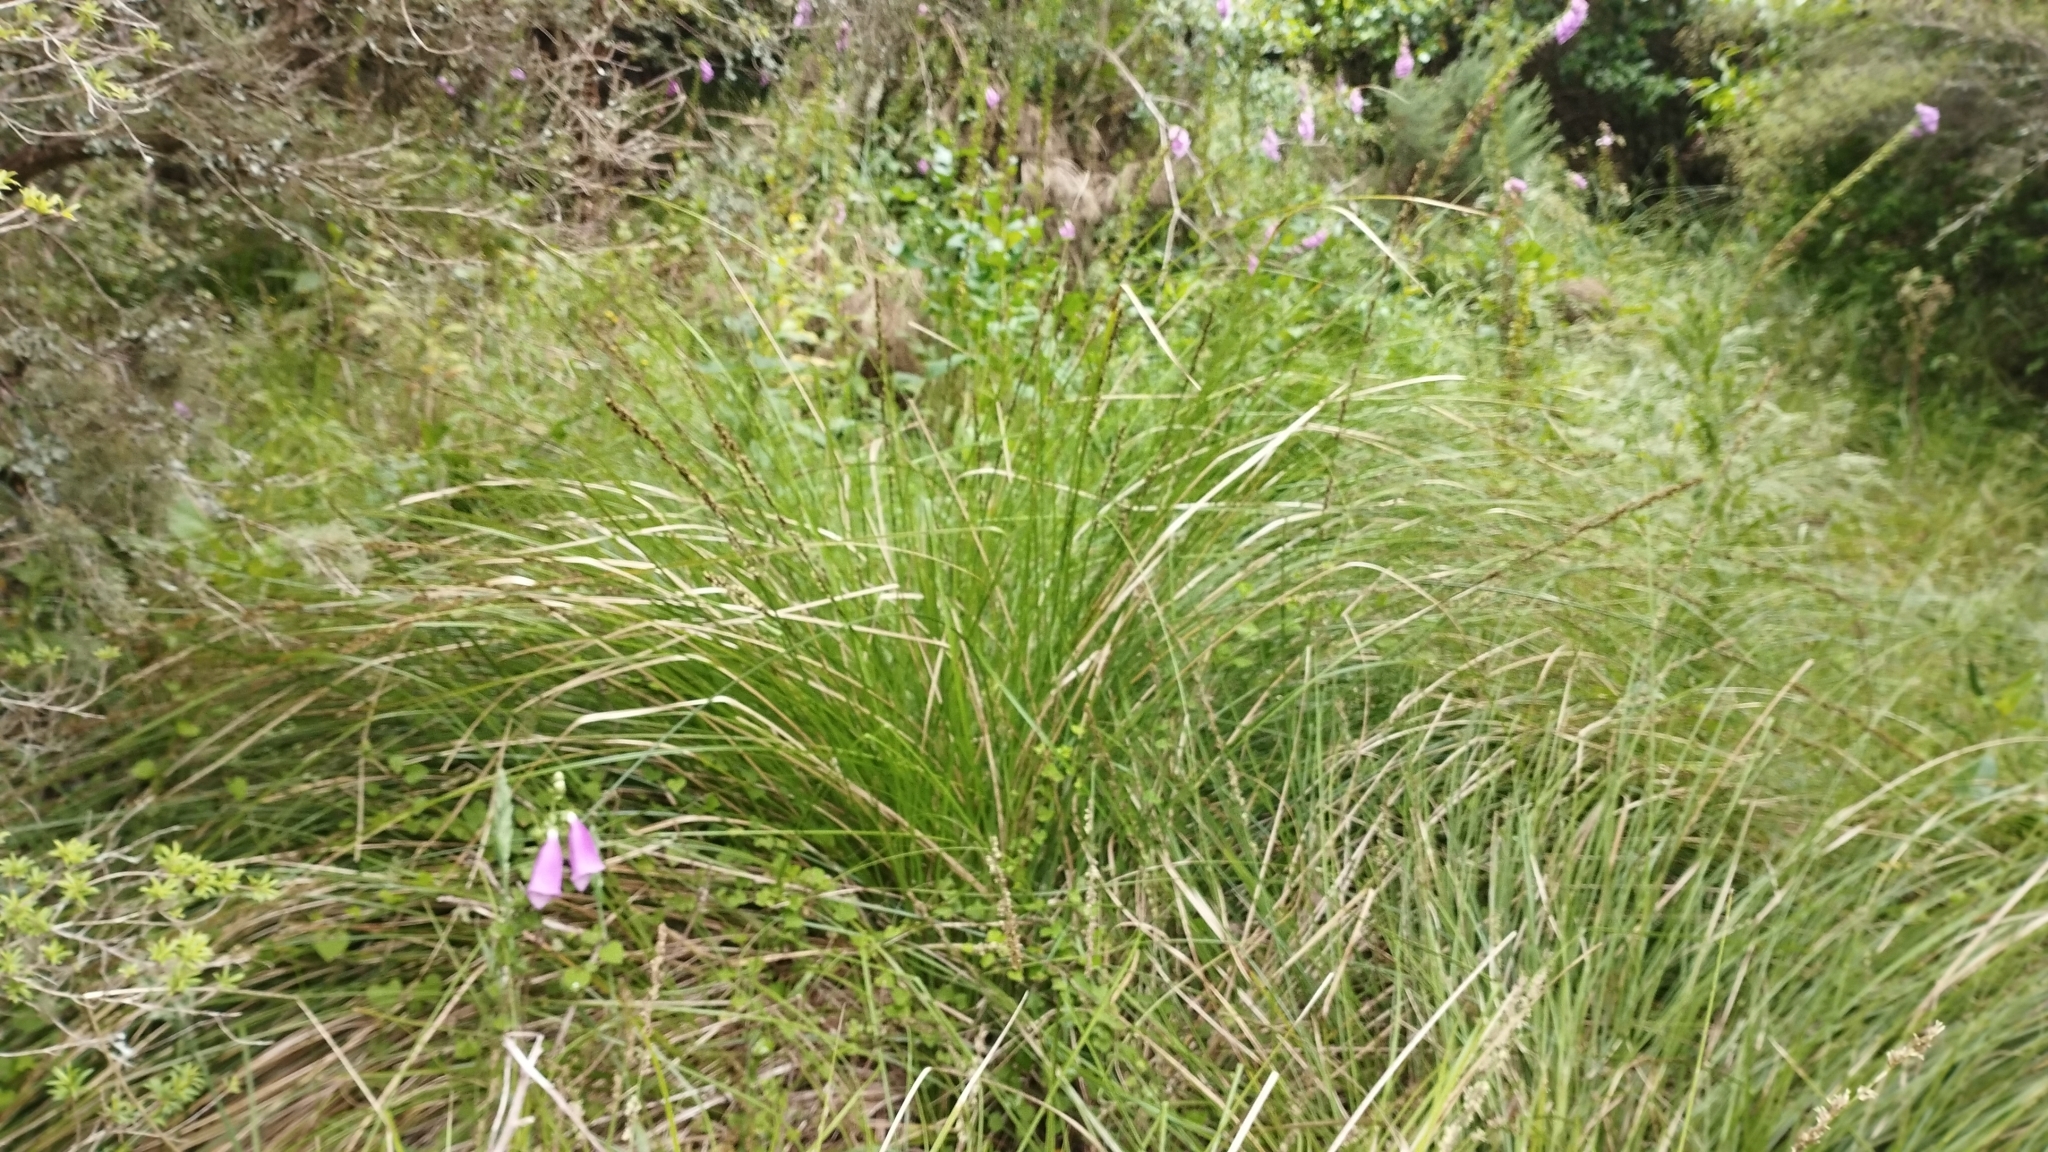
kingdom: Plantae
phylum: Tracheophyta
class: Liliopsida
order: Poales
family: Cyperaceae
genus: Carex
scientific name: Carex virgata
